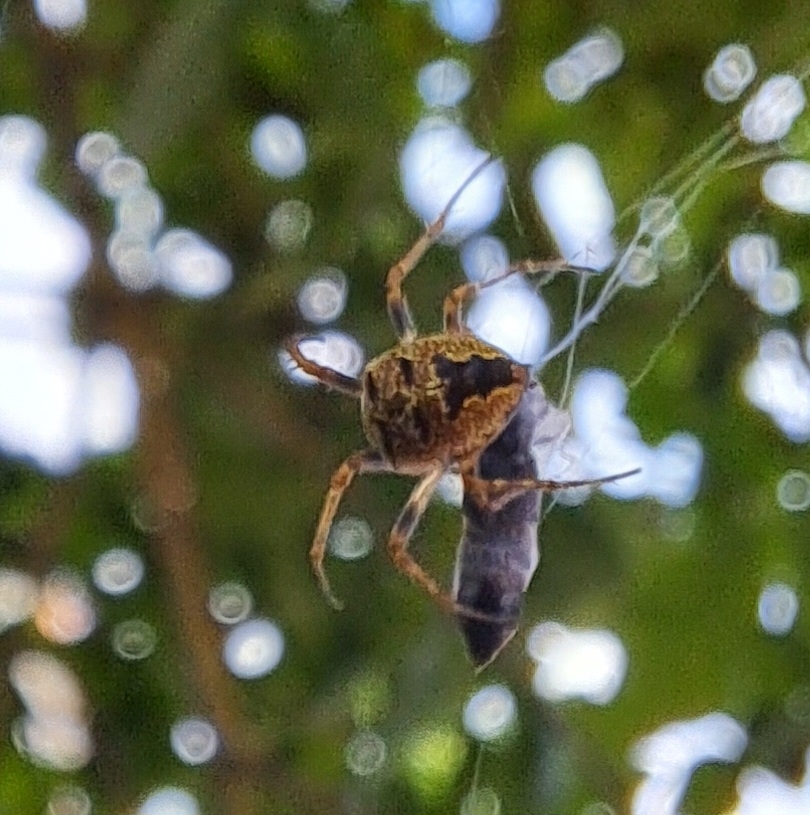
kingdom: Animalia
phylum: Arthropoda
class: Arachnida
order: Araneae
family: Araneidae
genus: Zilla
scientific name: Zilla diodia
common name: Zilla diodia
